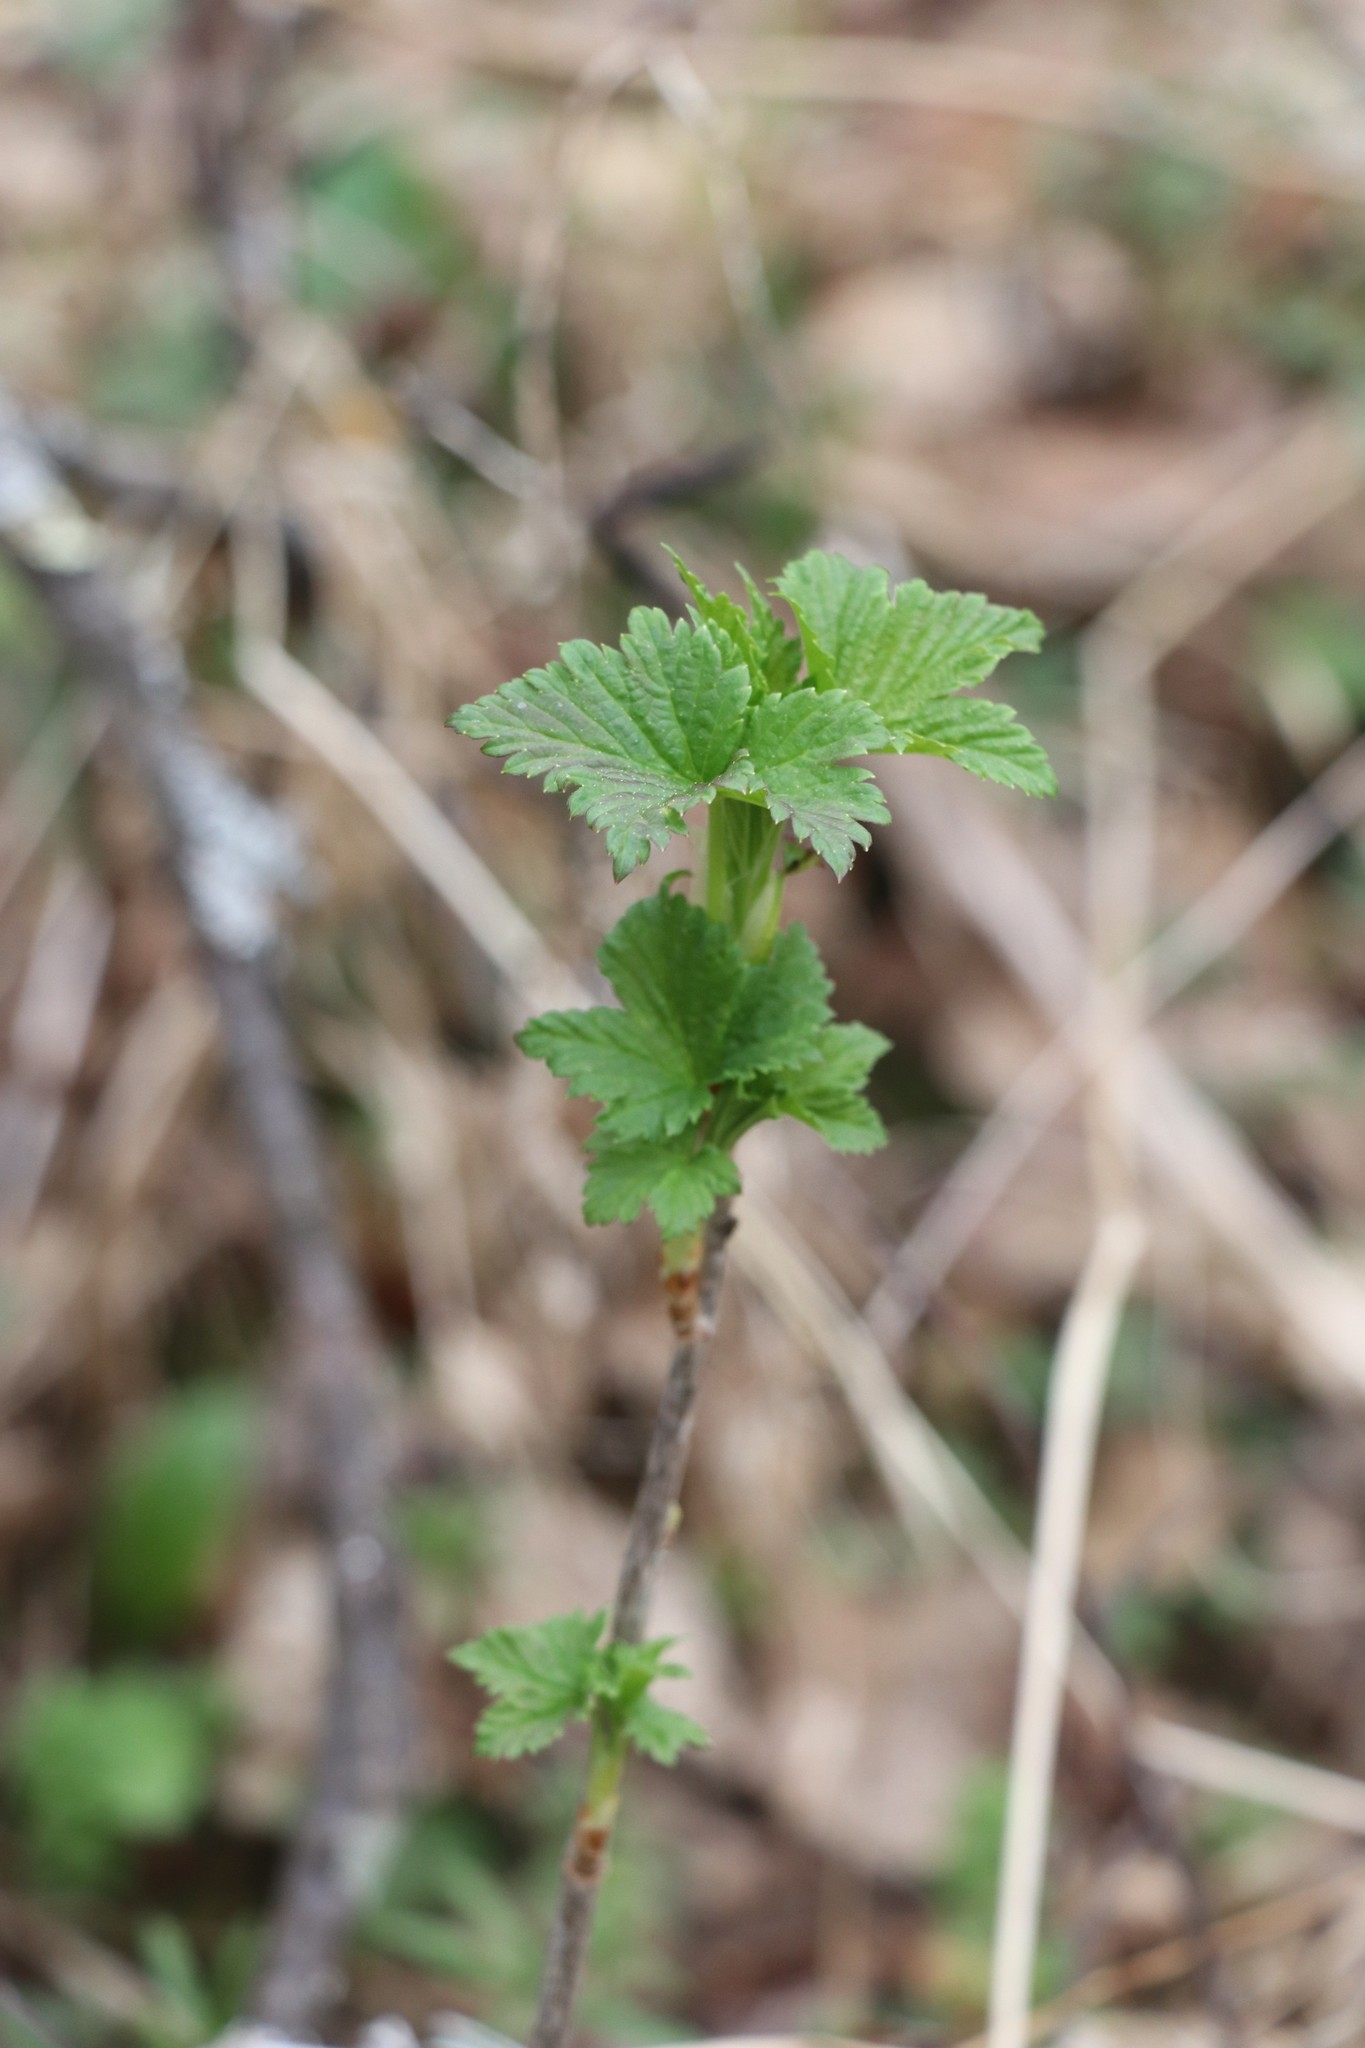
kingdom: Plantae
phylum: Tracheophyta
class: Magnoliopsida
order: Saxifragales
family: Grossulariaceae
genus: Ribes
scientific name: Ribes nigrum
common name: Black currant
